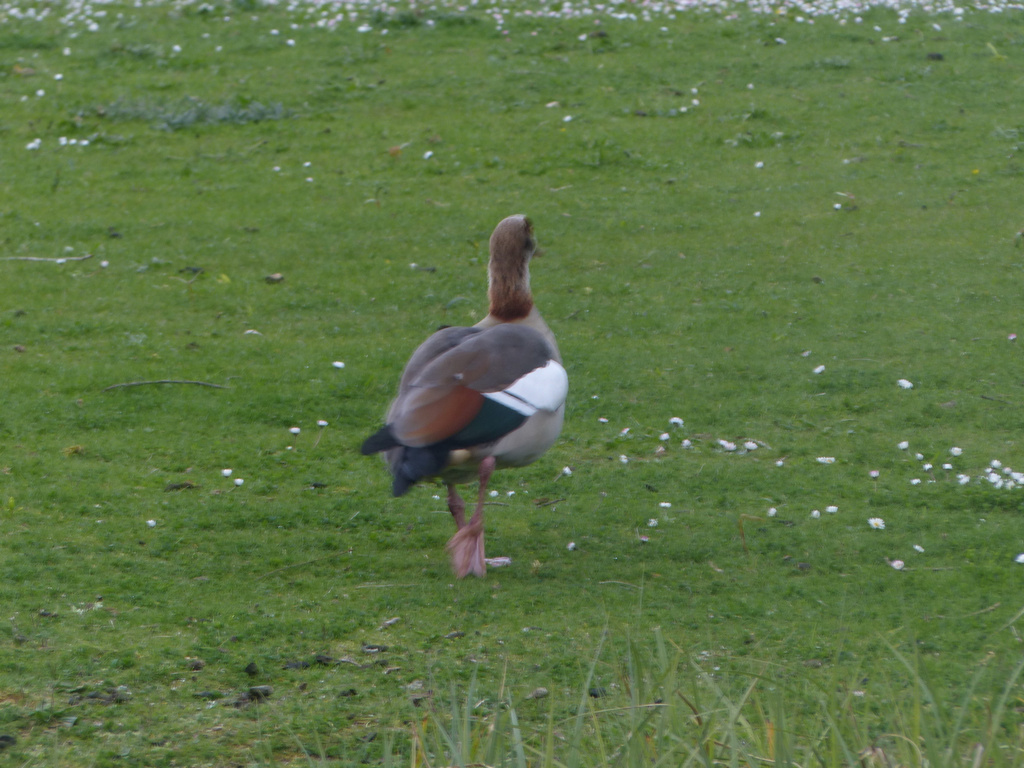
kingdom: Animalia
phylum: Chordata
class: Aves
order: Anseriformes
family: Anatidae
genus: Alopochen
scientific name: Alopochen aegyptiaca
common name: Egyptian goose
